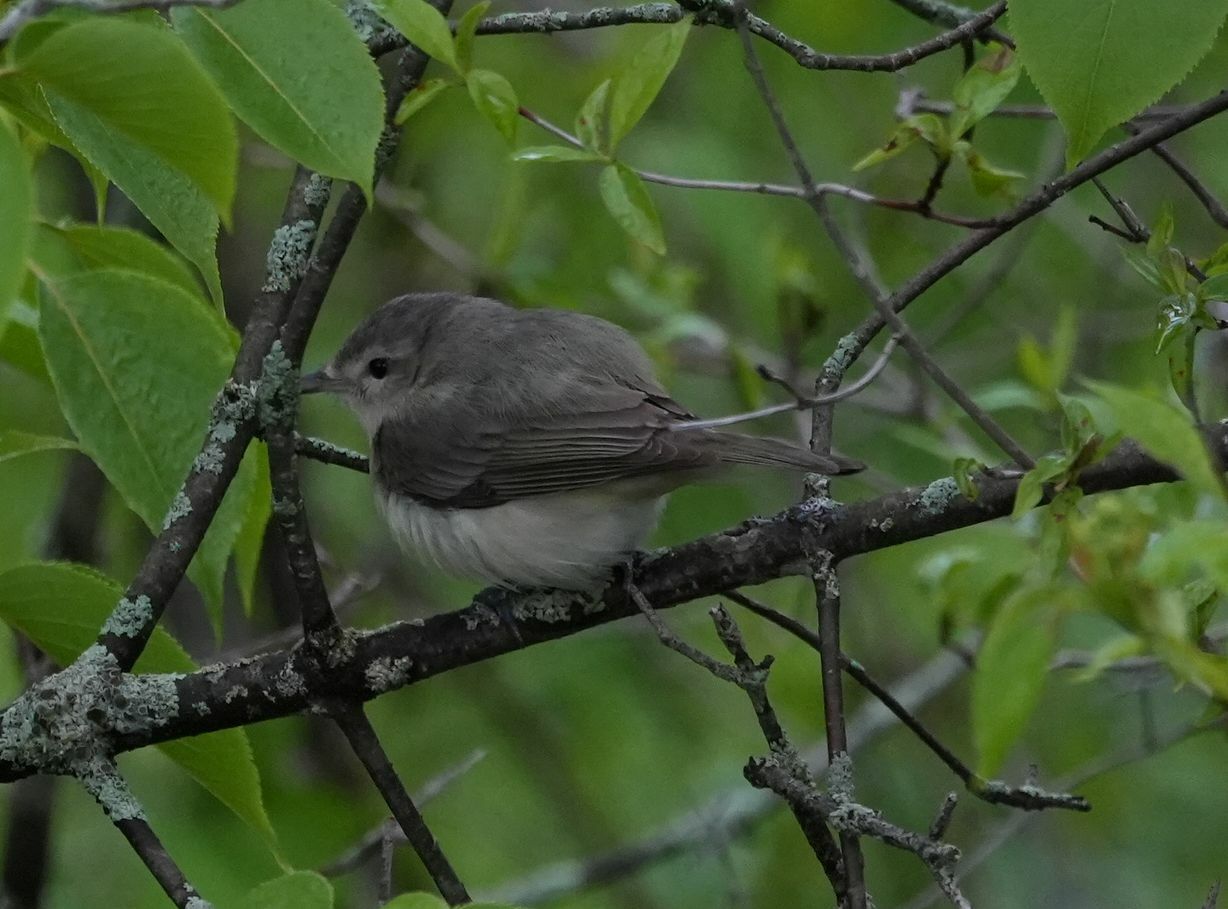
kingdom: Animalia
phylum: Chordata
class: Aves
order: Passeriformes
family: Vireonidae
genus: Vireo
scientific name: Vireo gilvus
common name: Warbling vireo
